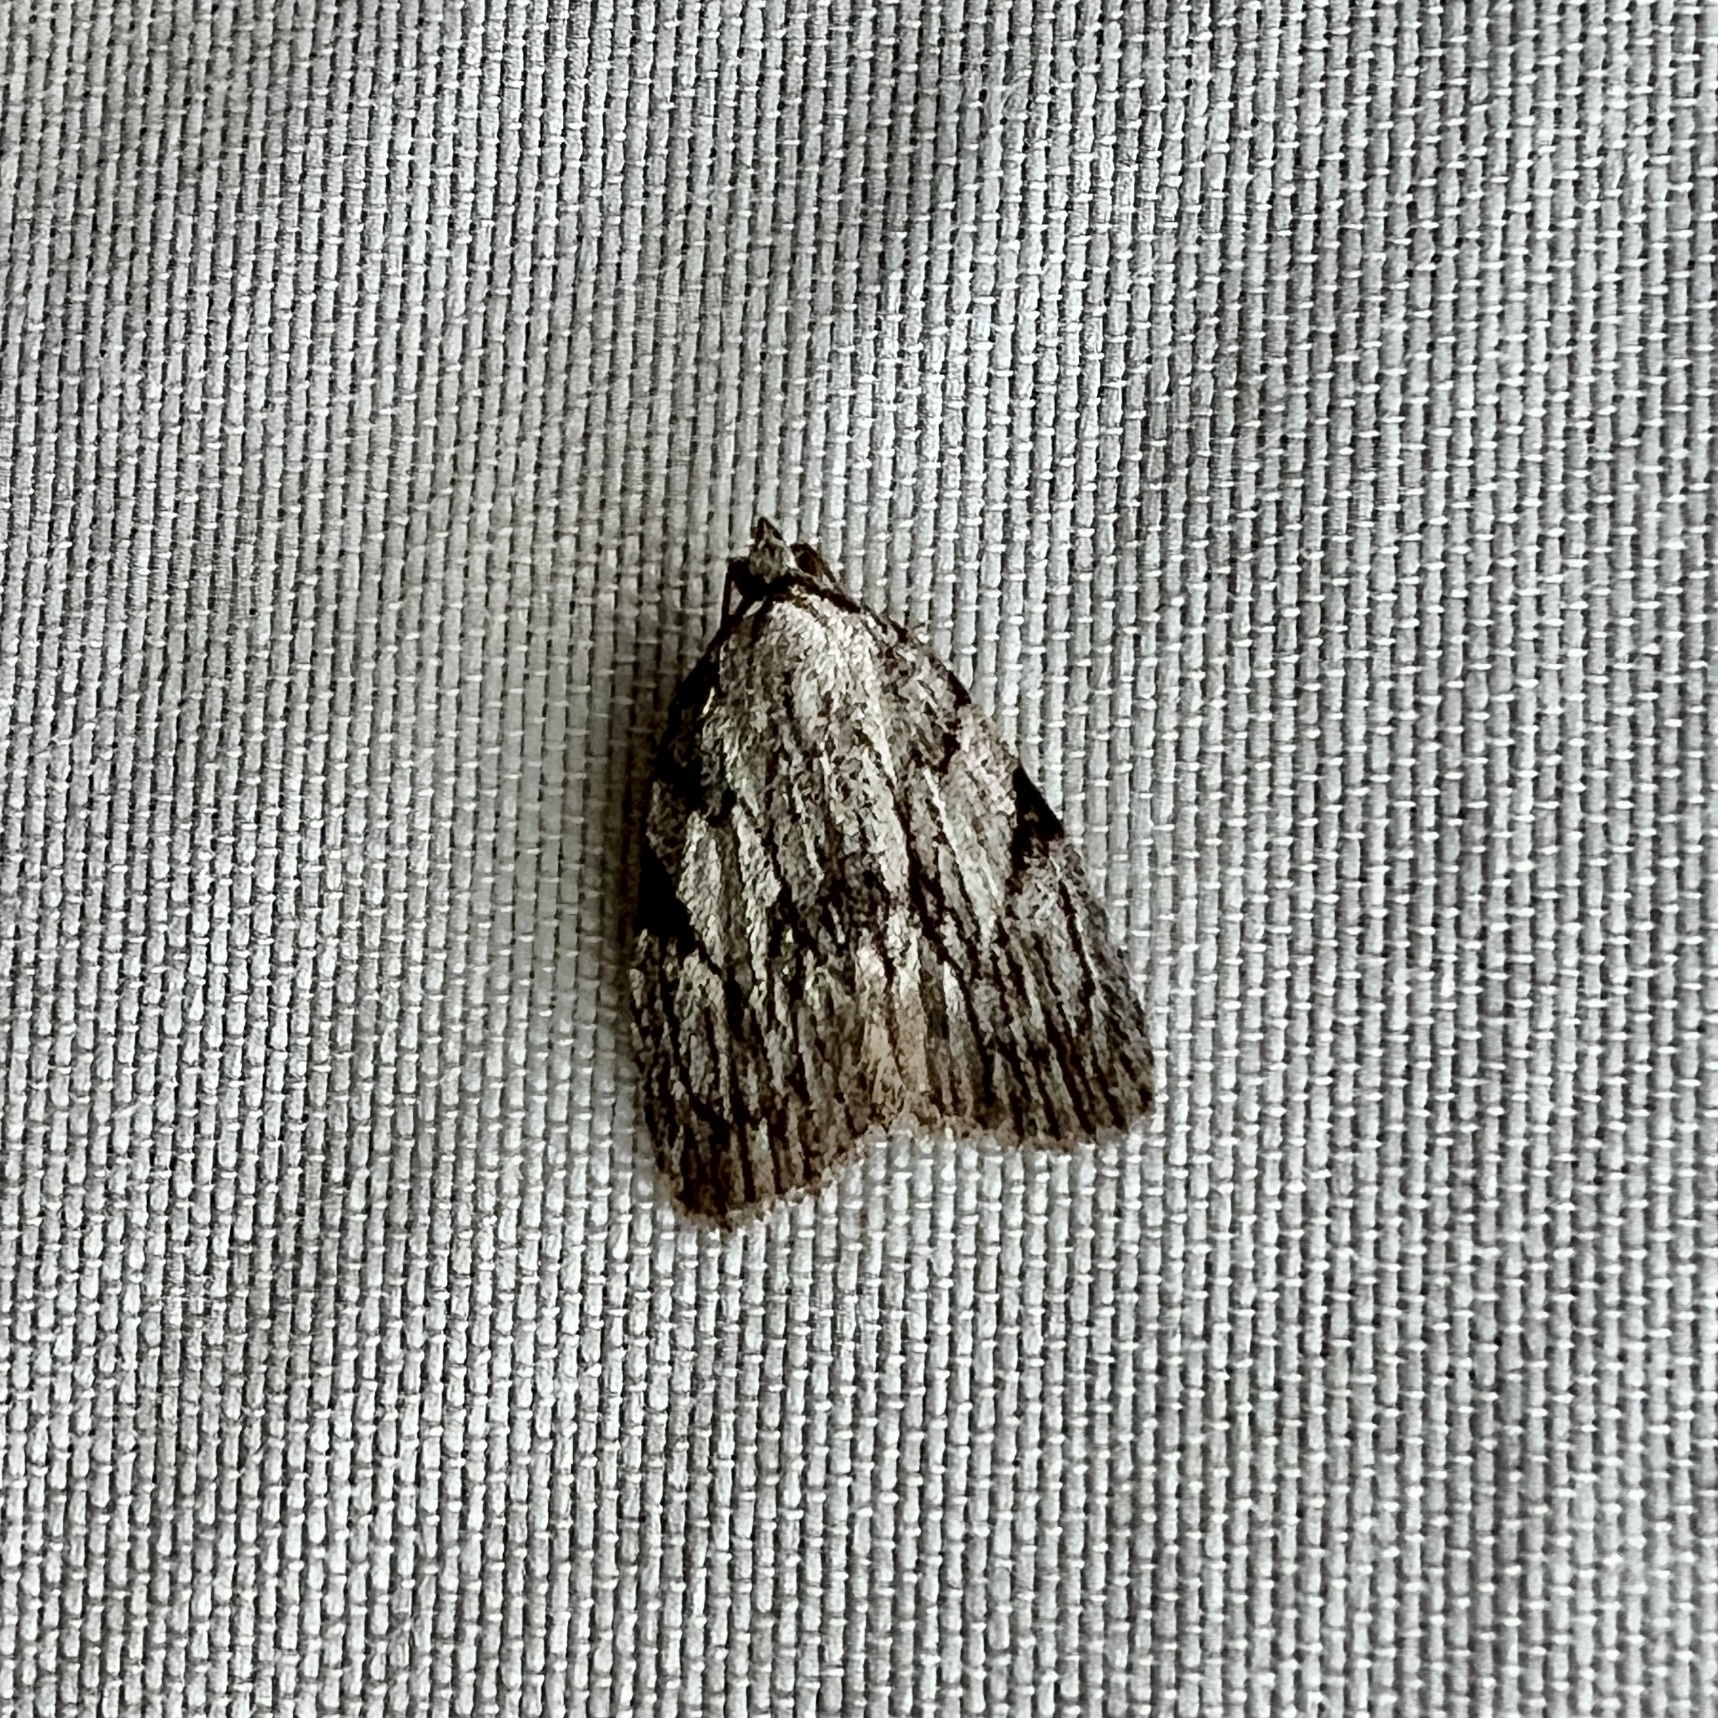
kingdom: Animalia
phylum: Arthropoda
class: Insecta
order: Lepidoptera
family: Noctuidae
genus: Balsa
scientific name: Balsa tristrigella
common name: Three-lined balsa moth
